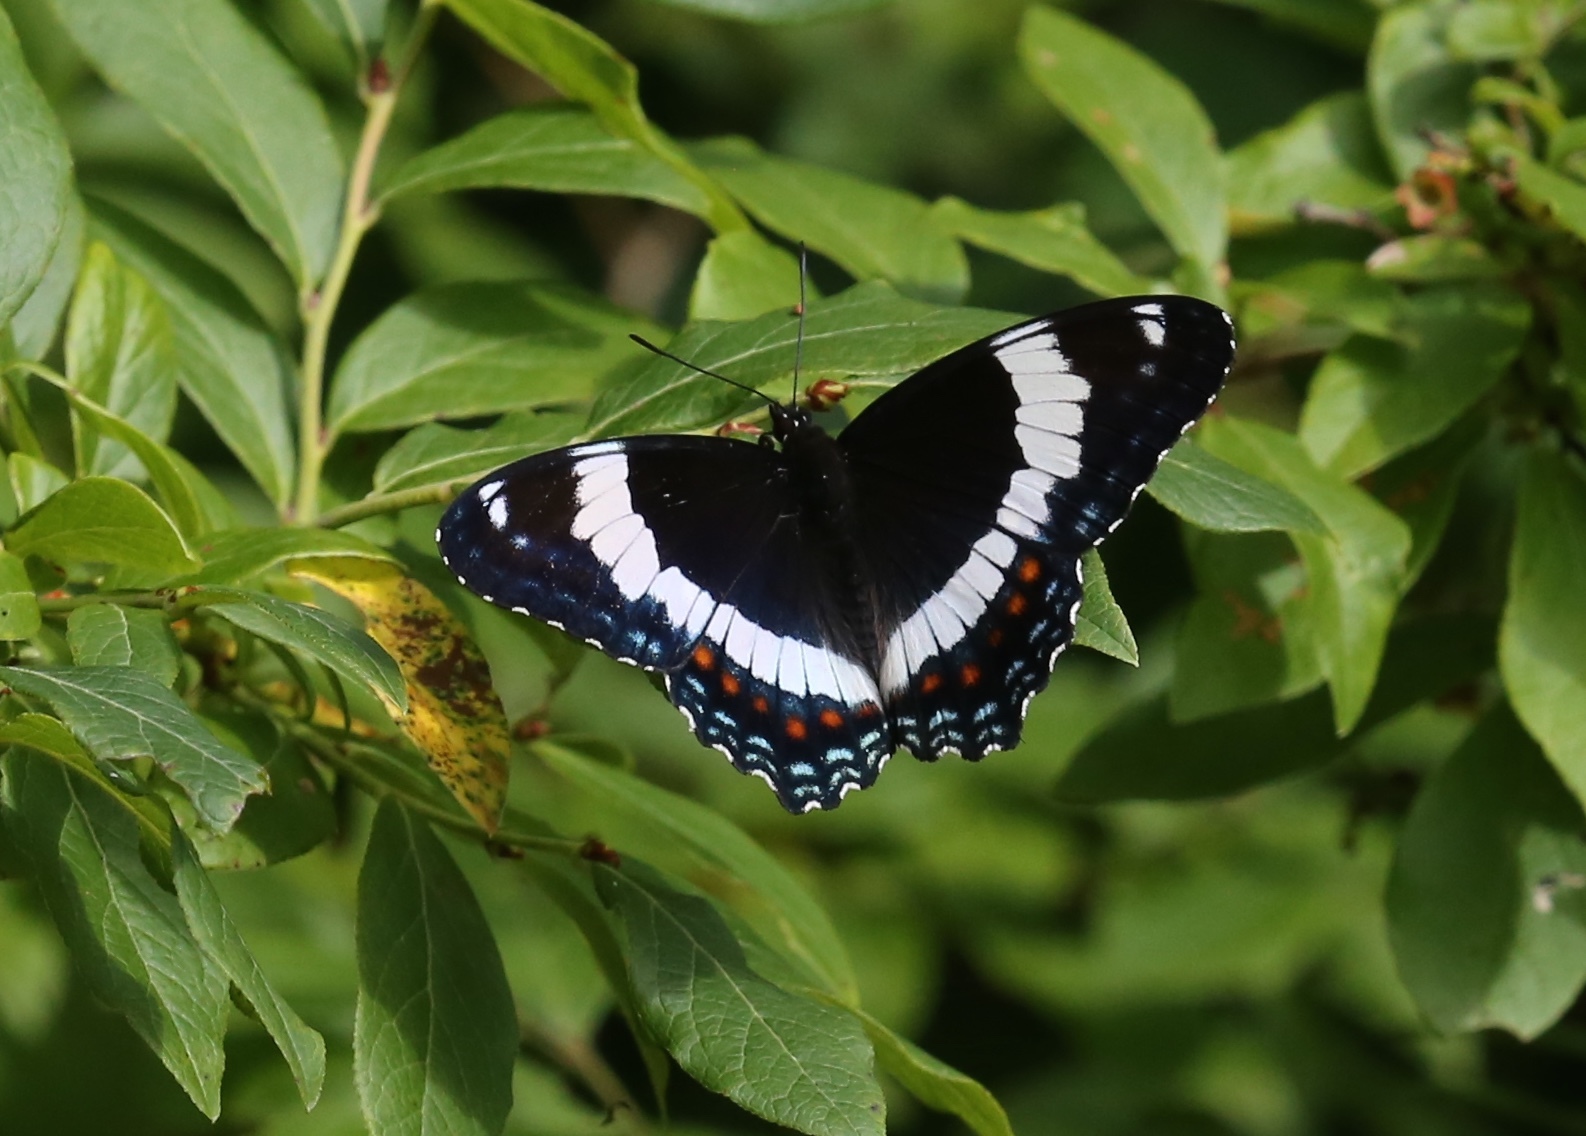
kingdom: Animalia
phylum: Arthropoda
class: Insecta
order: Lepidoptera
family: Nymphalidae
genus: Limenitis
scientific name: Limenitis arthemis
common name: Red-spotted admiral
